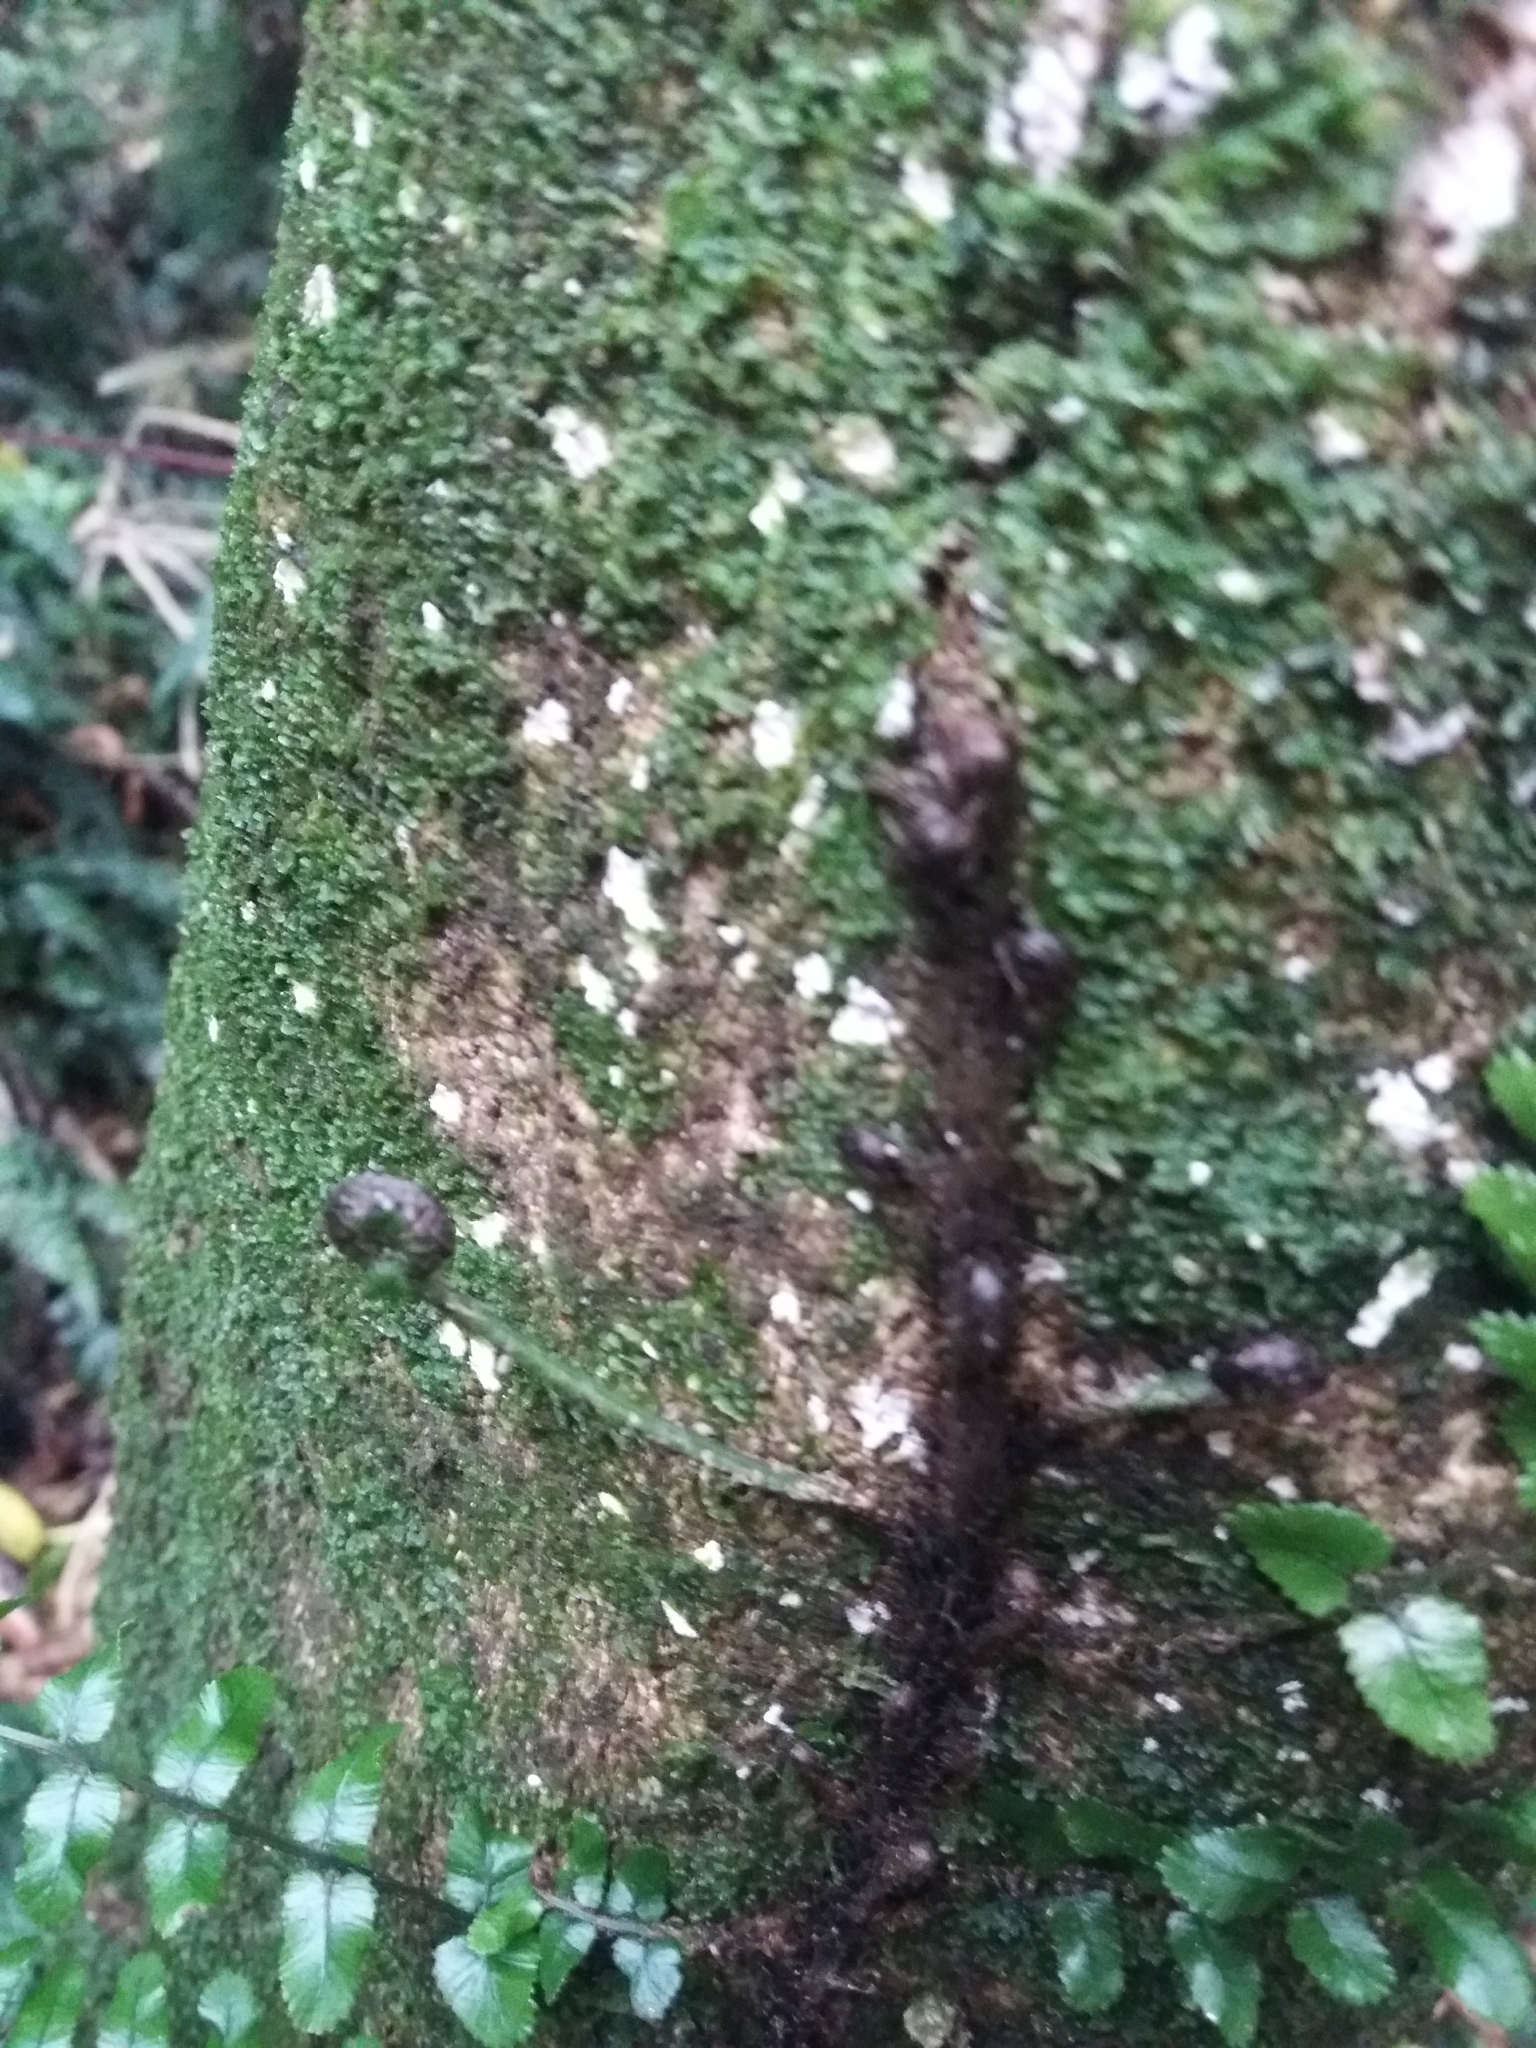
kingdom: Plantae
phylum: Tracheophyta
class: Polypodiopsida
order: Polypodiales
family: Blechnaceae
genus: Icarus
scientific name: Icarus filiformis
